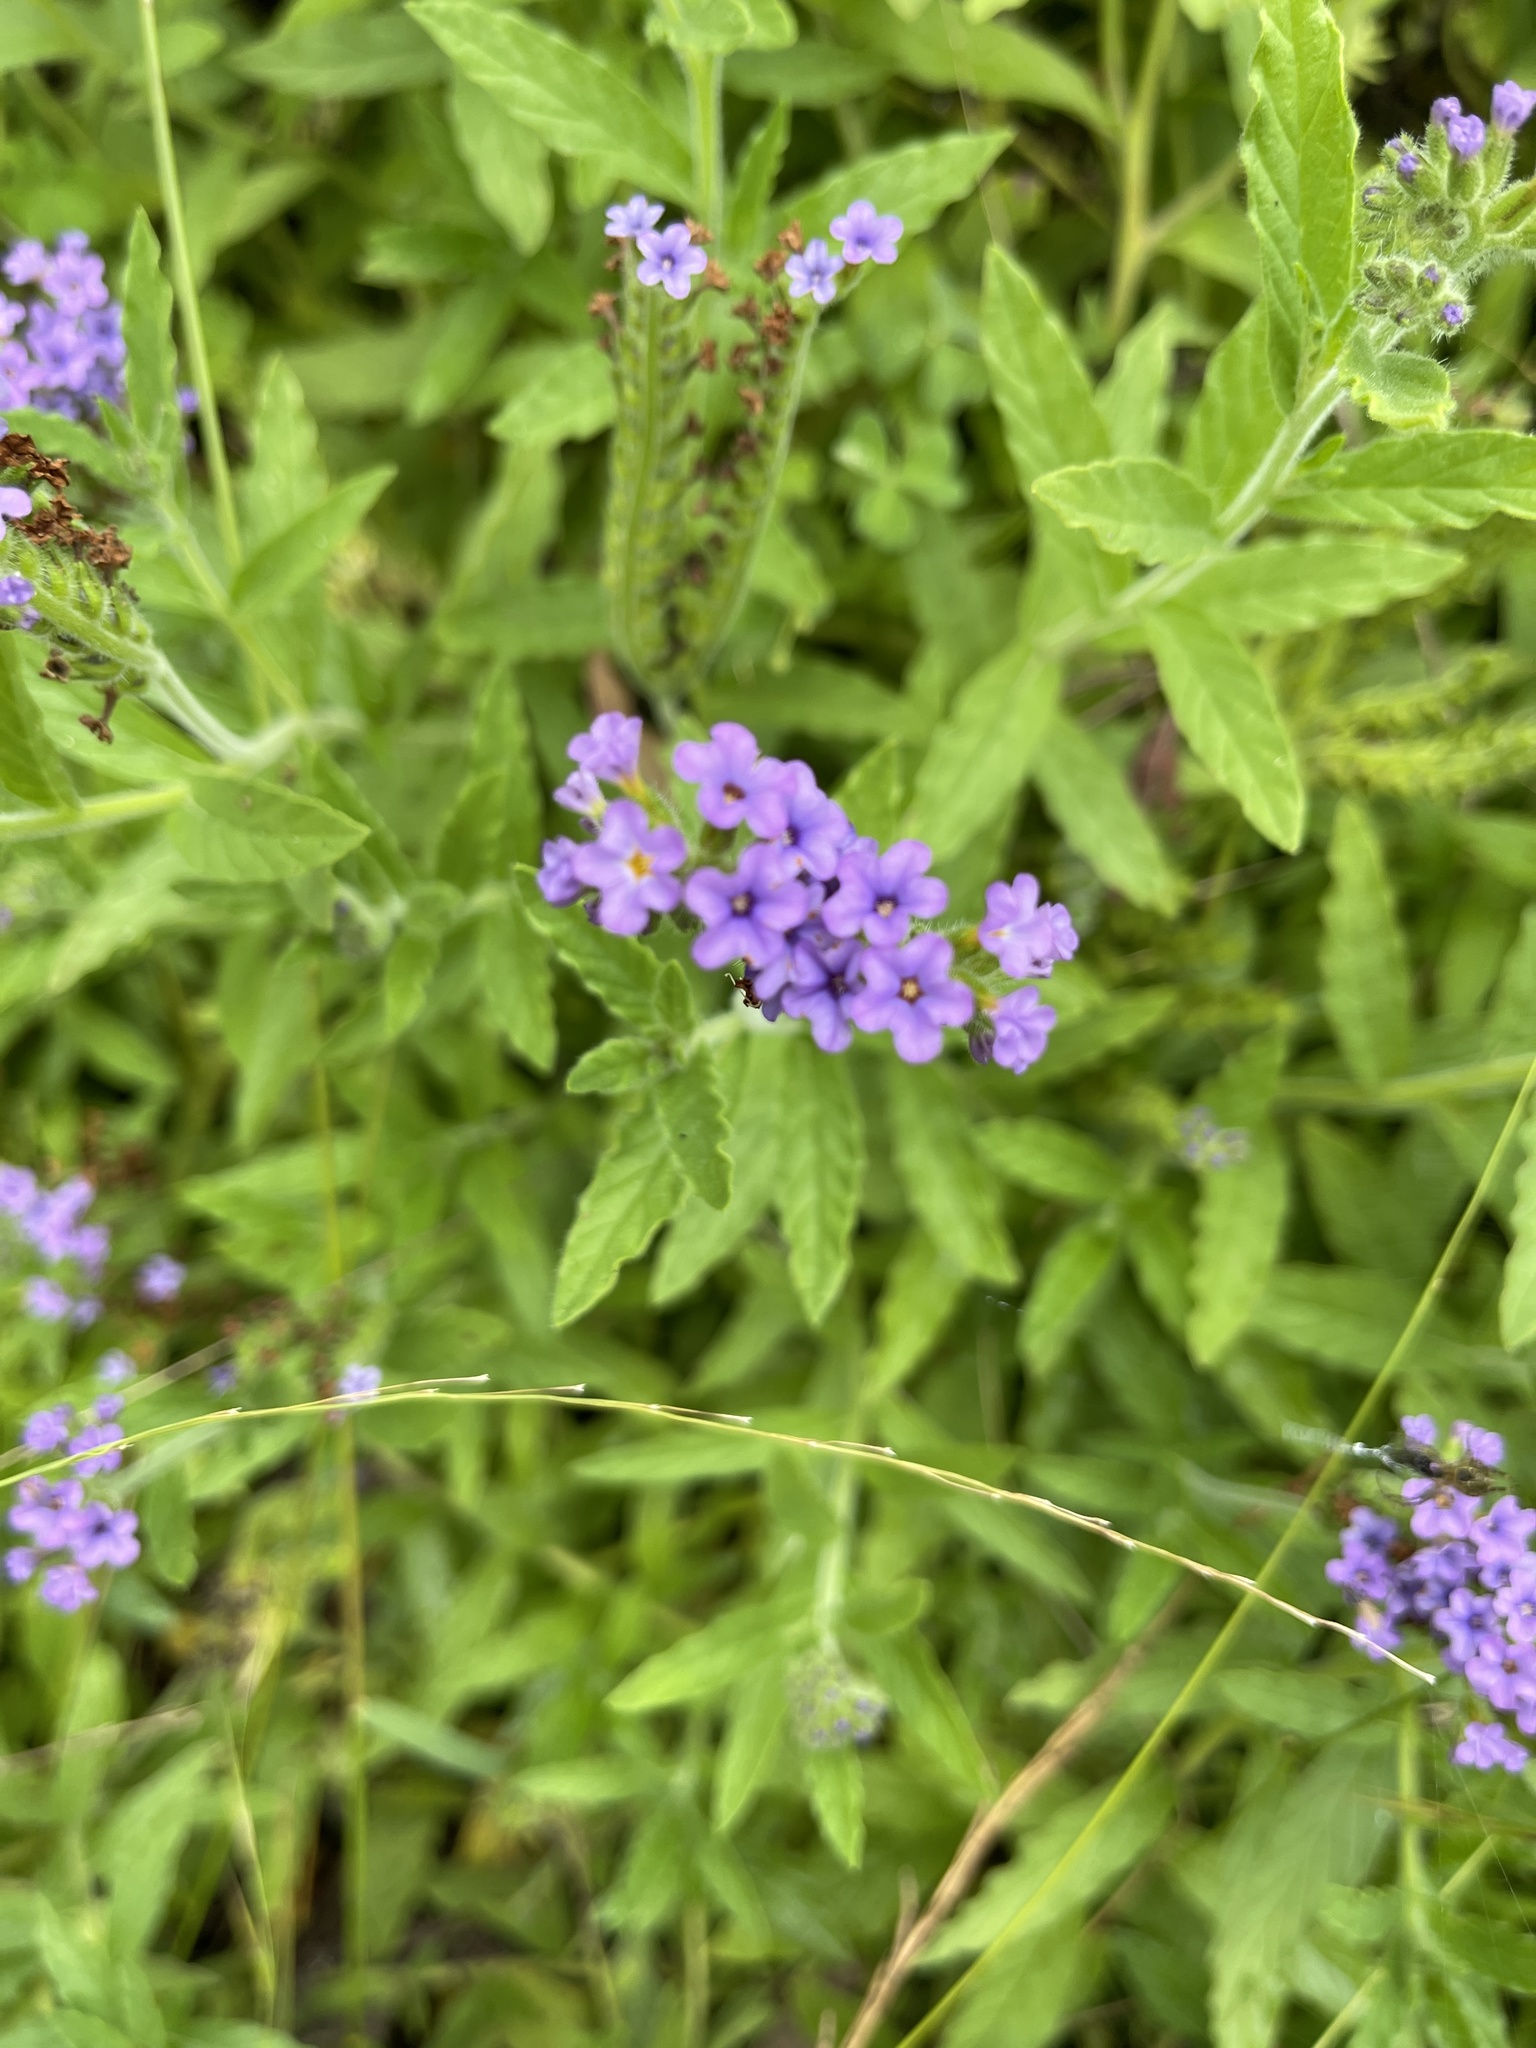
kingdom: Plantae
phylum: Tracheophyta
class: Magnoliopsida
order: Boraginales
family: Heliotropiaceae
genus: Heliotropium
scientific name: Heliotropium amplexicaule
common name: Clasping heliotrope
